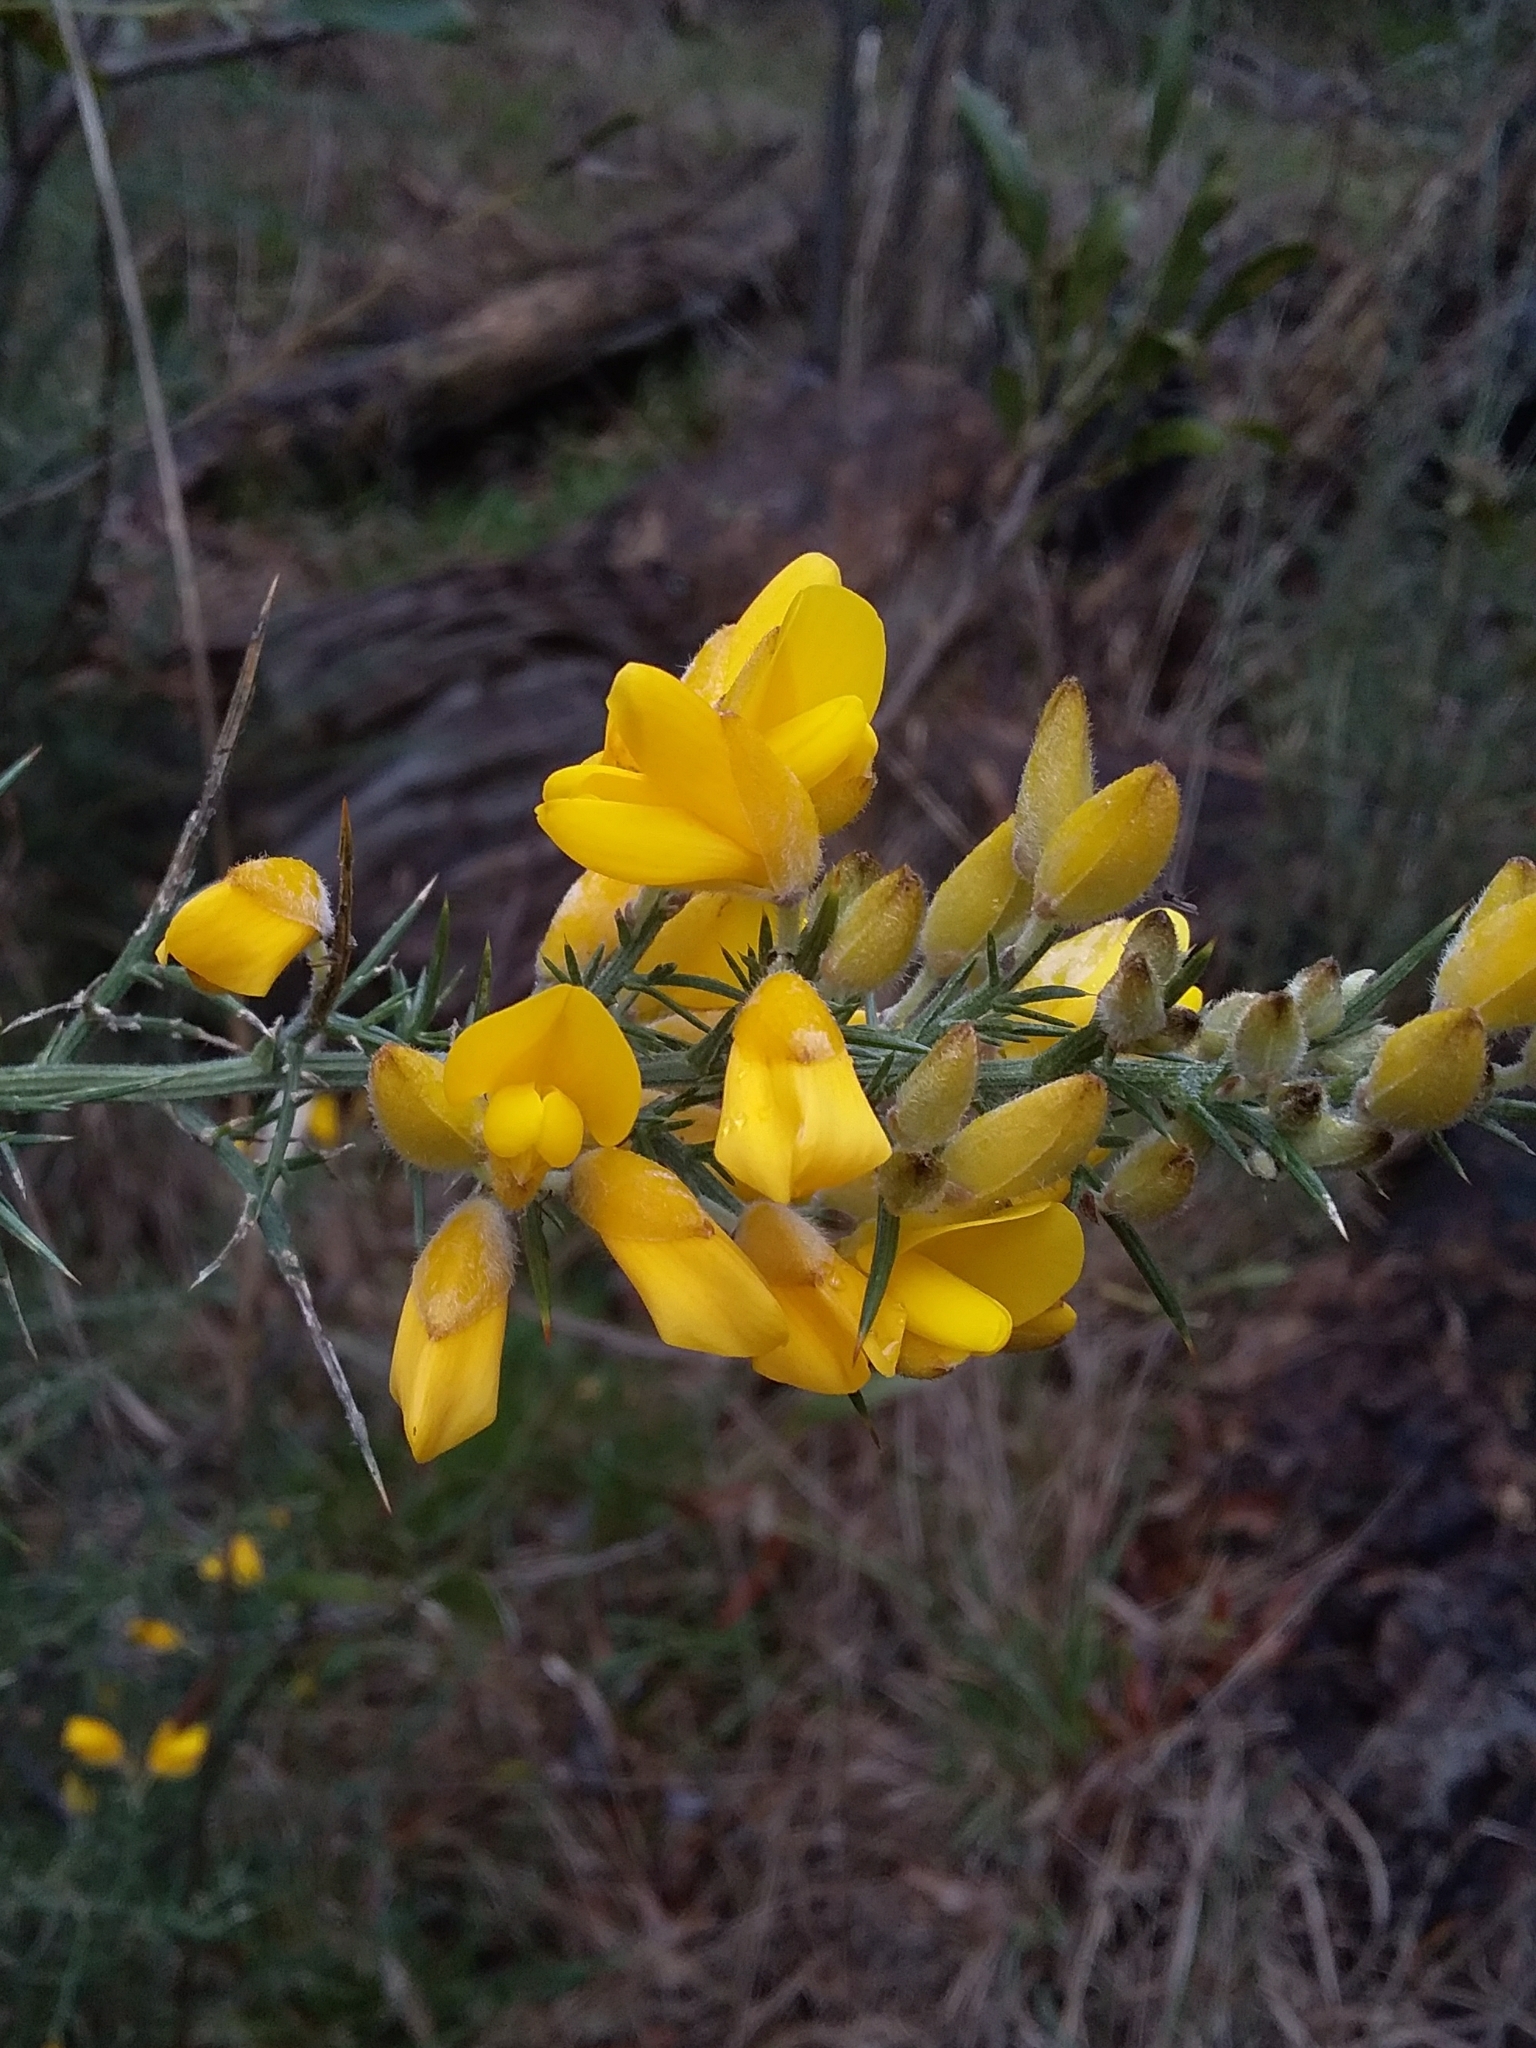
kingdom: Plantae
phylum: Tracheophyta
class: Magnoliopsida
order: Fabales
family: Fabaceae
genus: Ulex
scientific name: Ulex europaeus
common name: Common gorse
